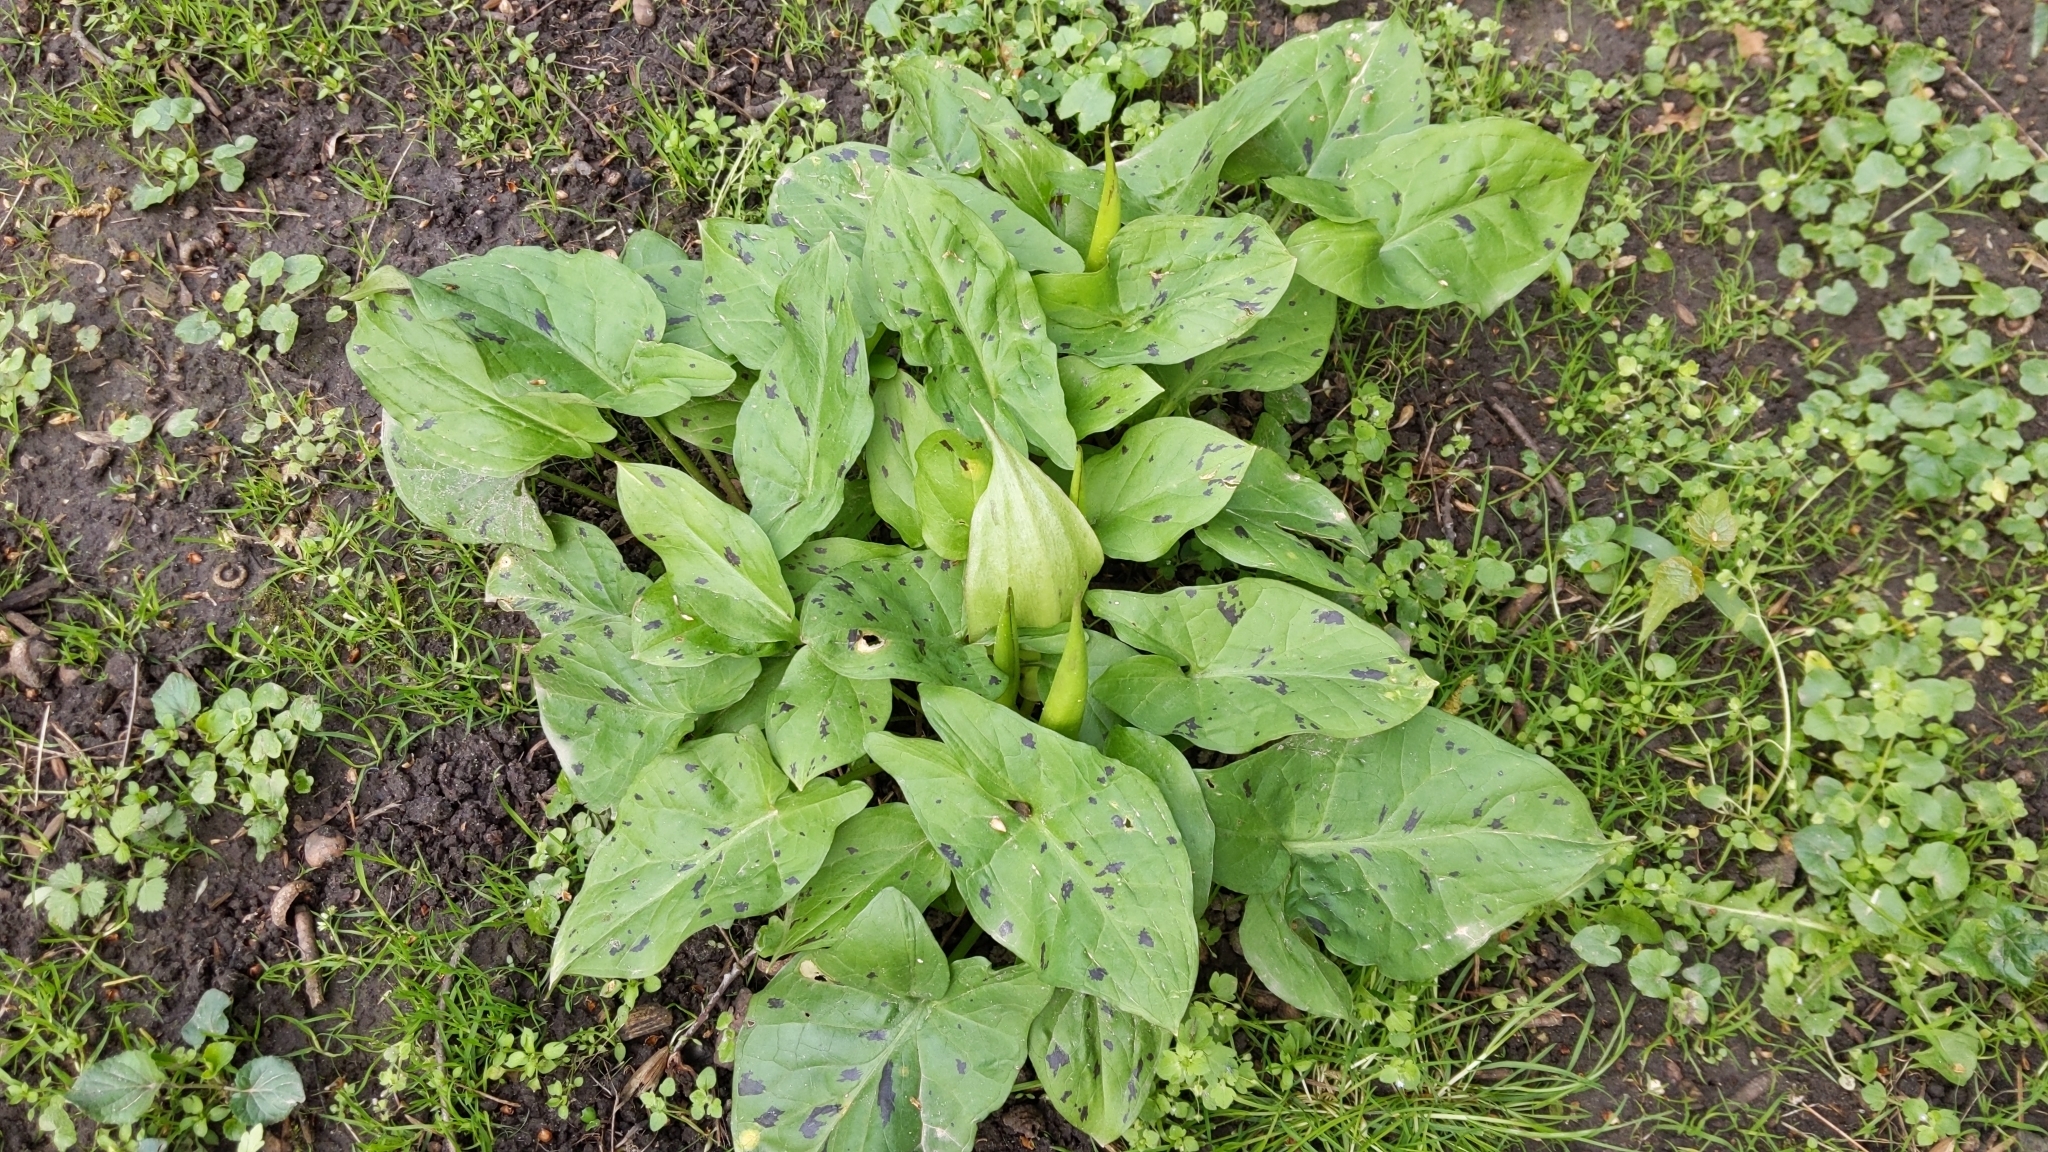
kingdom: Plantae
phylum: Tracheophyta
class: Liliopsida
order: Alismatales
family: Araceae
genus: Arum
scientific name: Arum maculatum
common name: Lords-and-ladies
